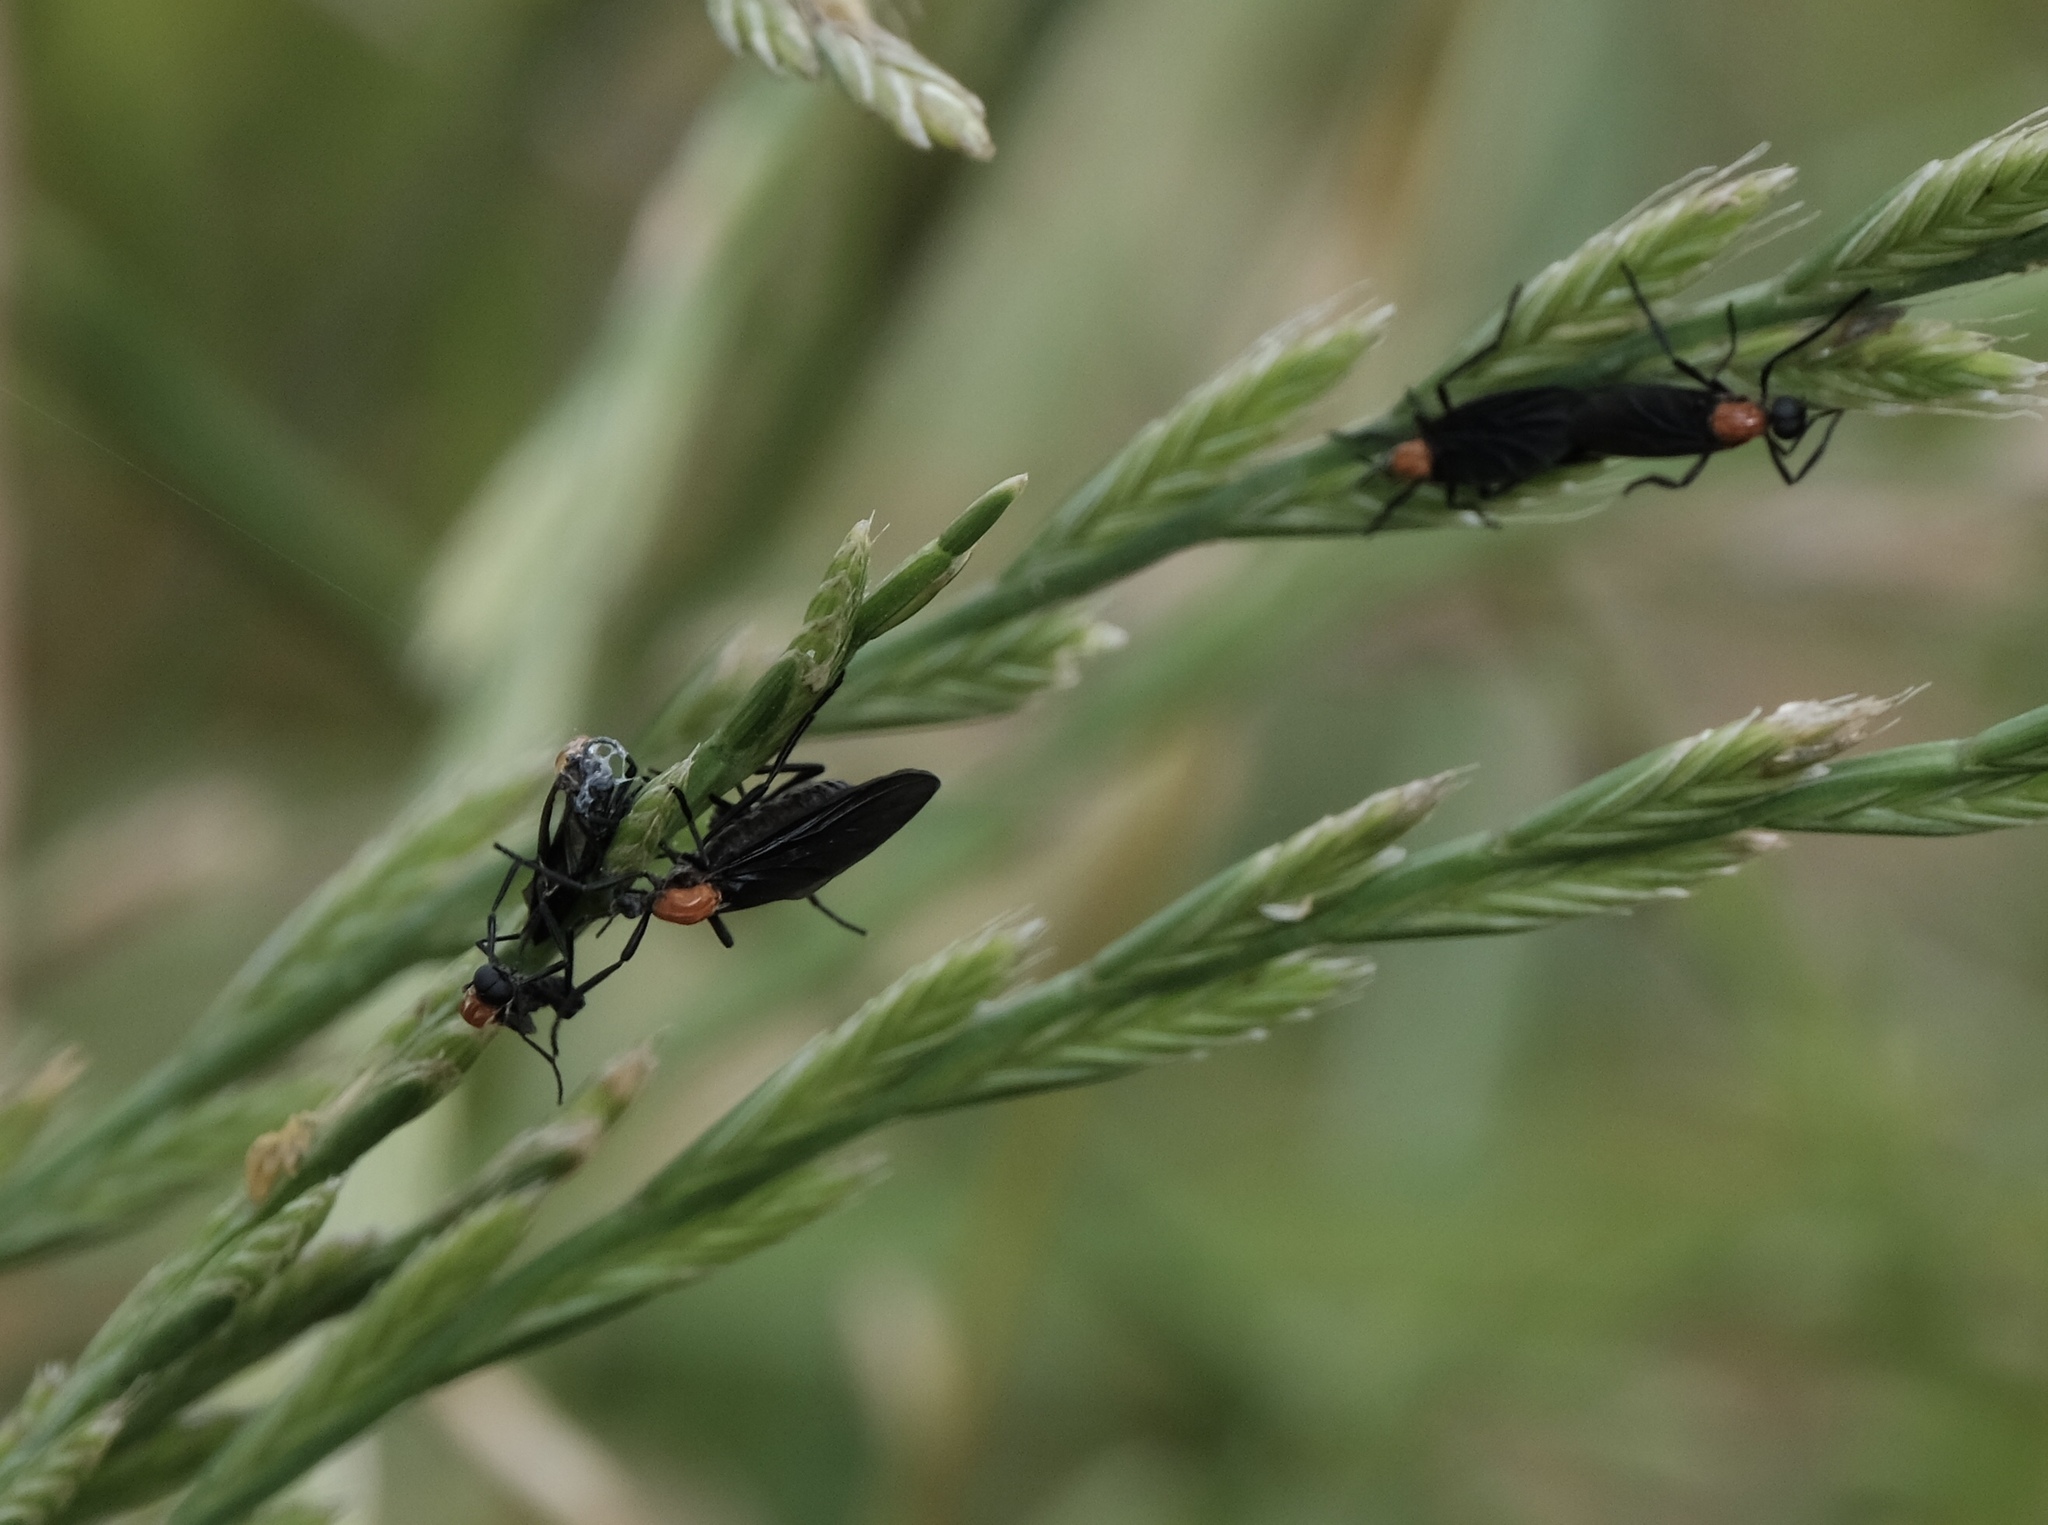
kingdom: Animalia
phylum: Arthropoda
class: Insecta
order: Diptera
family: Bibionidae
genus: Plecia
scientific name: Plecia nearctica
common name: March fly
